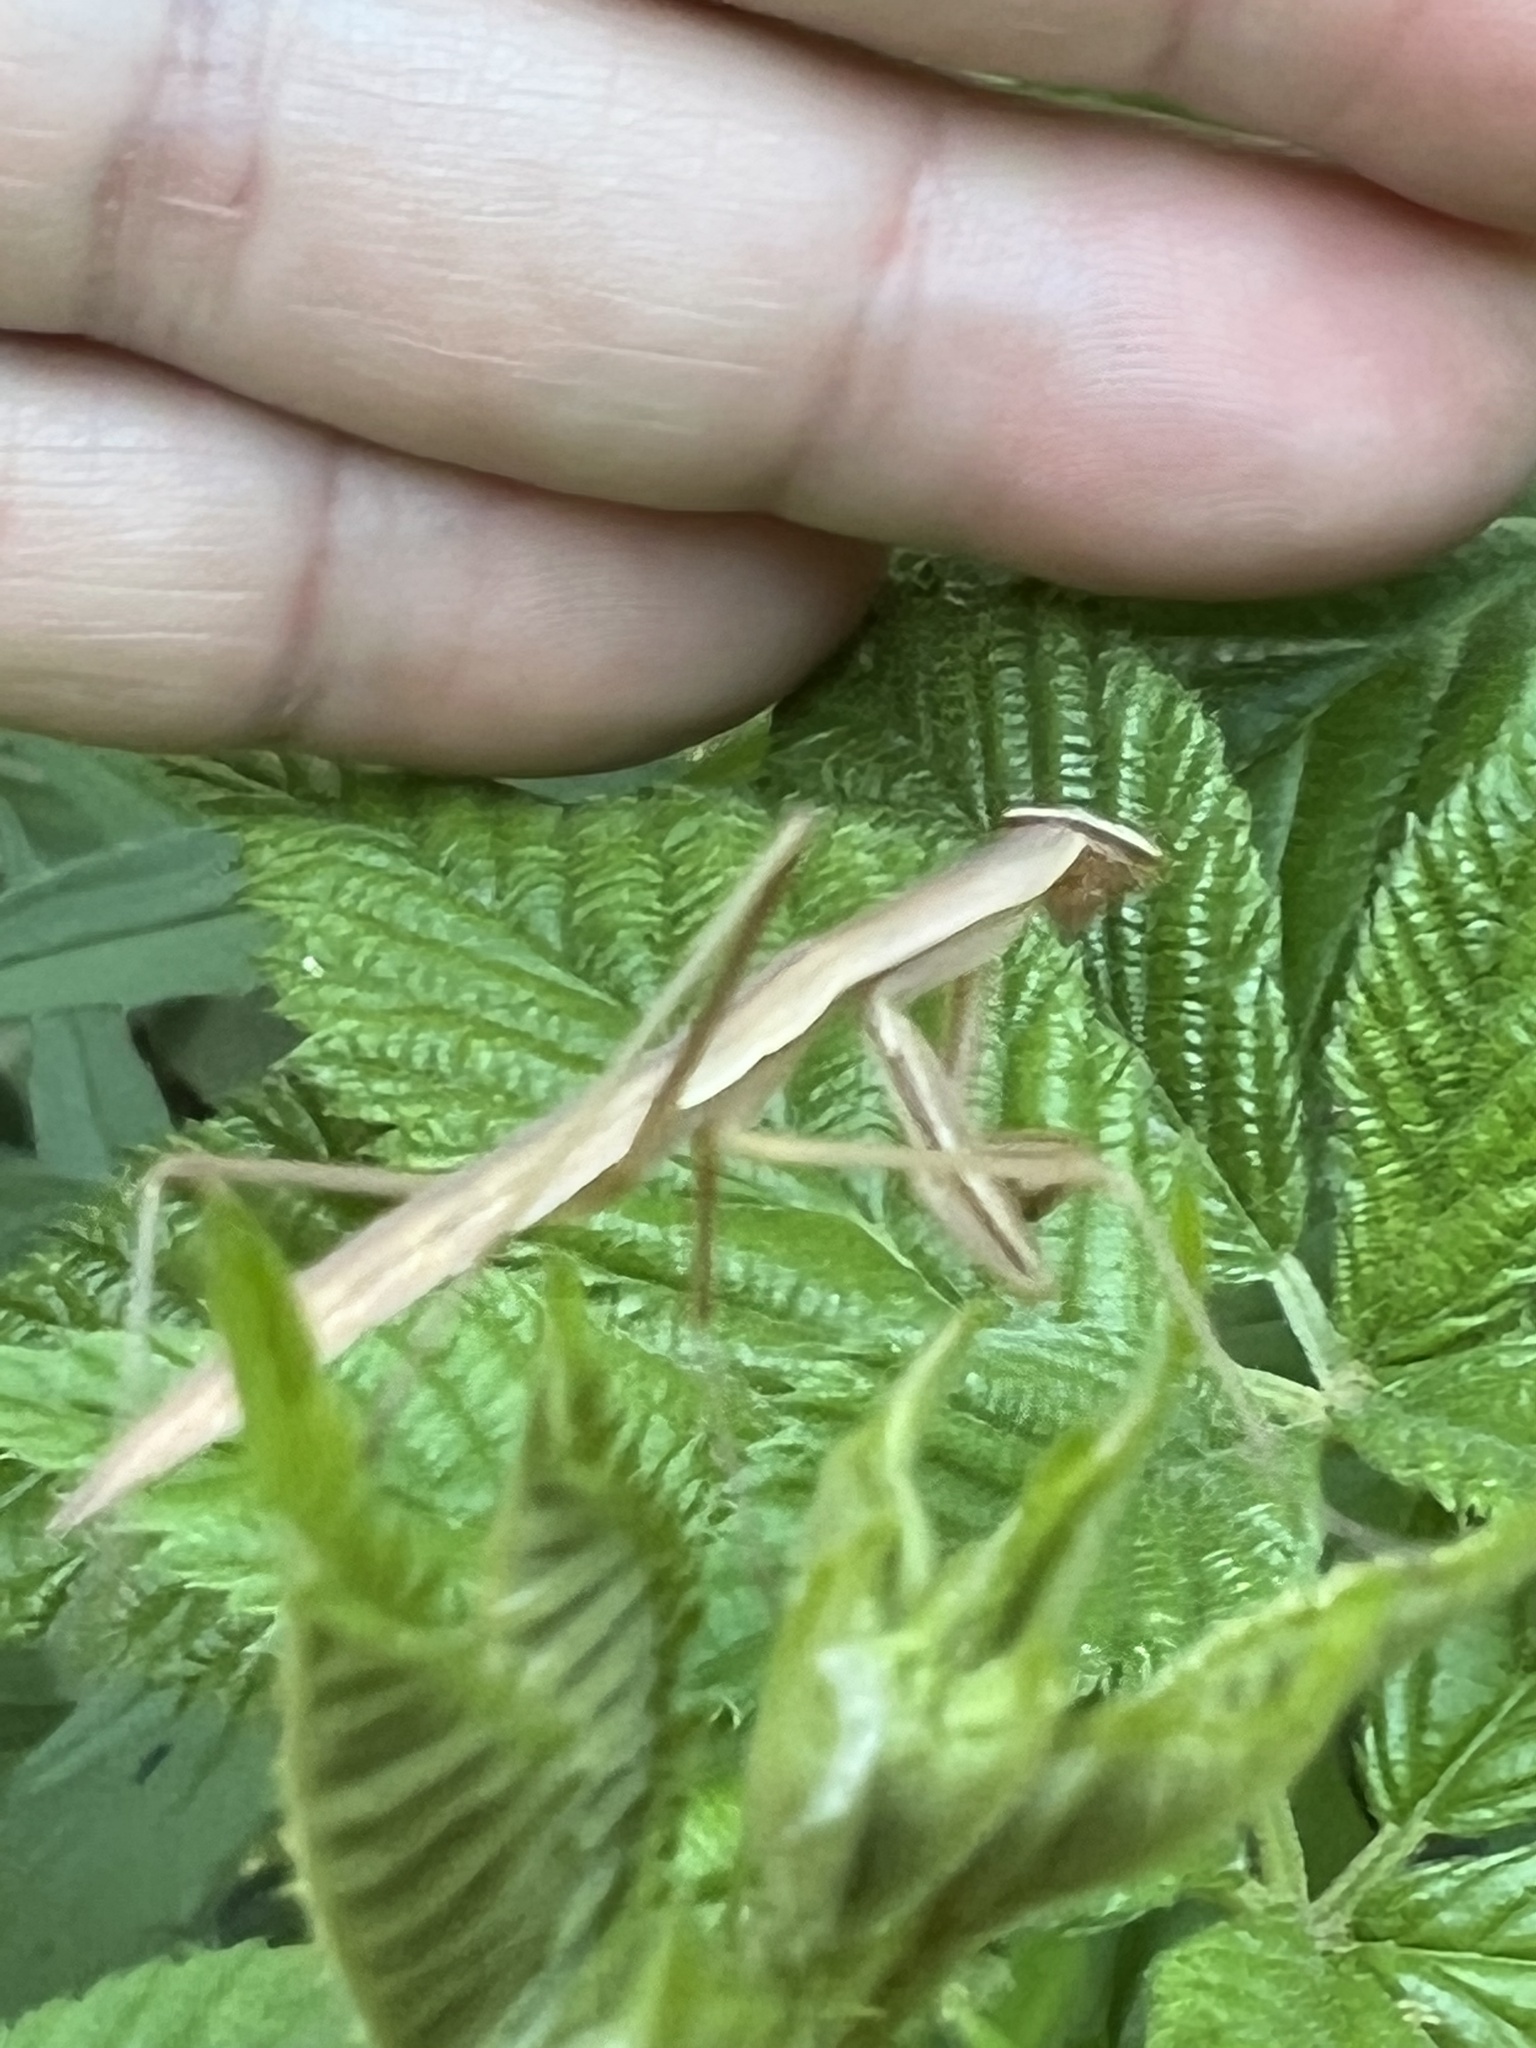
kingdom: Animalia
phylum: Arthropoda
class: Insecta
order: Mantodea
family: Mantidae
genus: Tenodera
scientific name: Tenodera sinensis
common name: Chinese mantis
